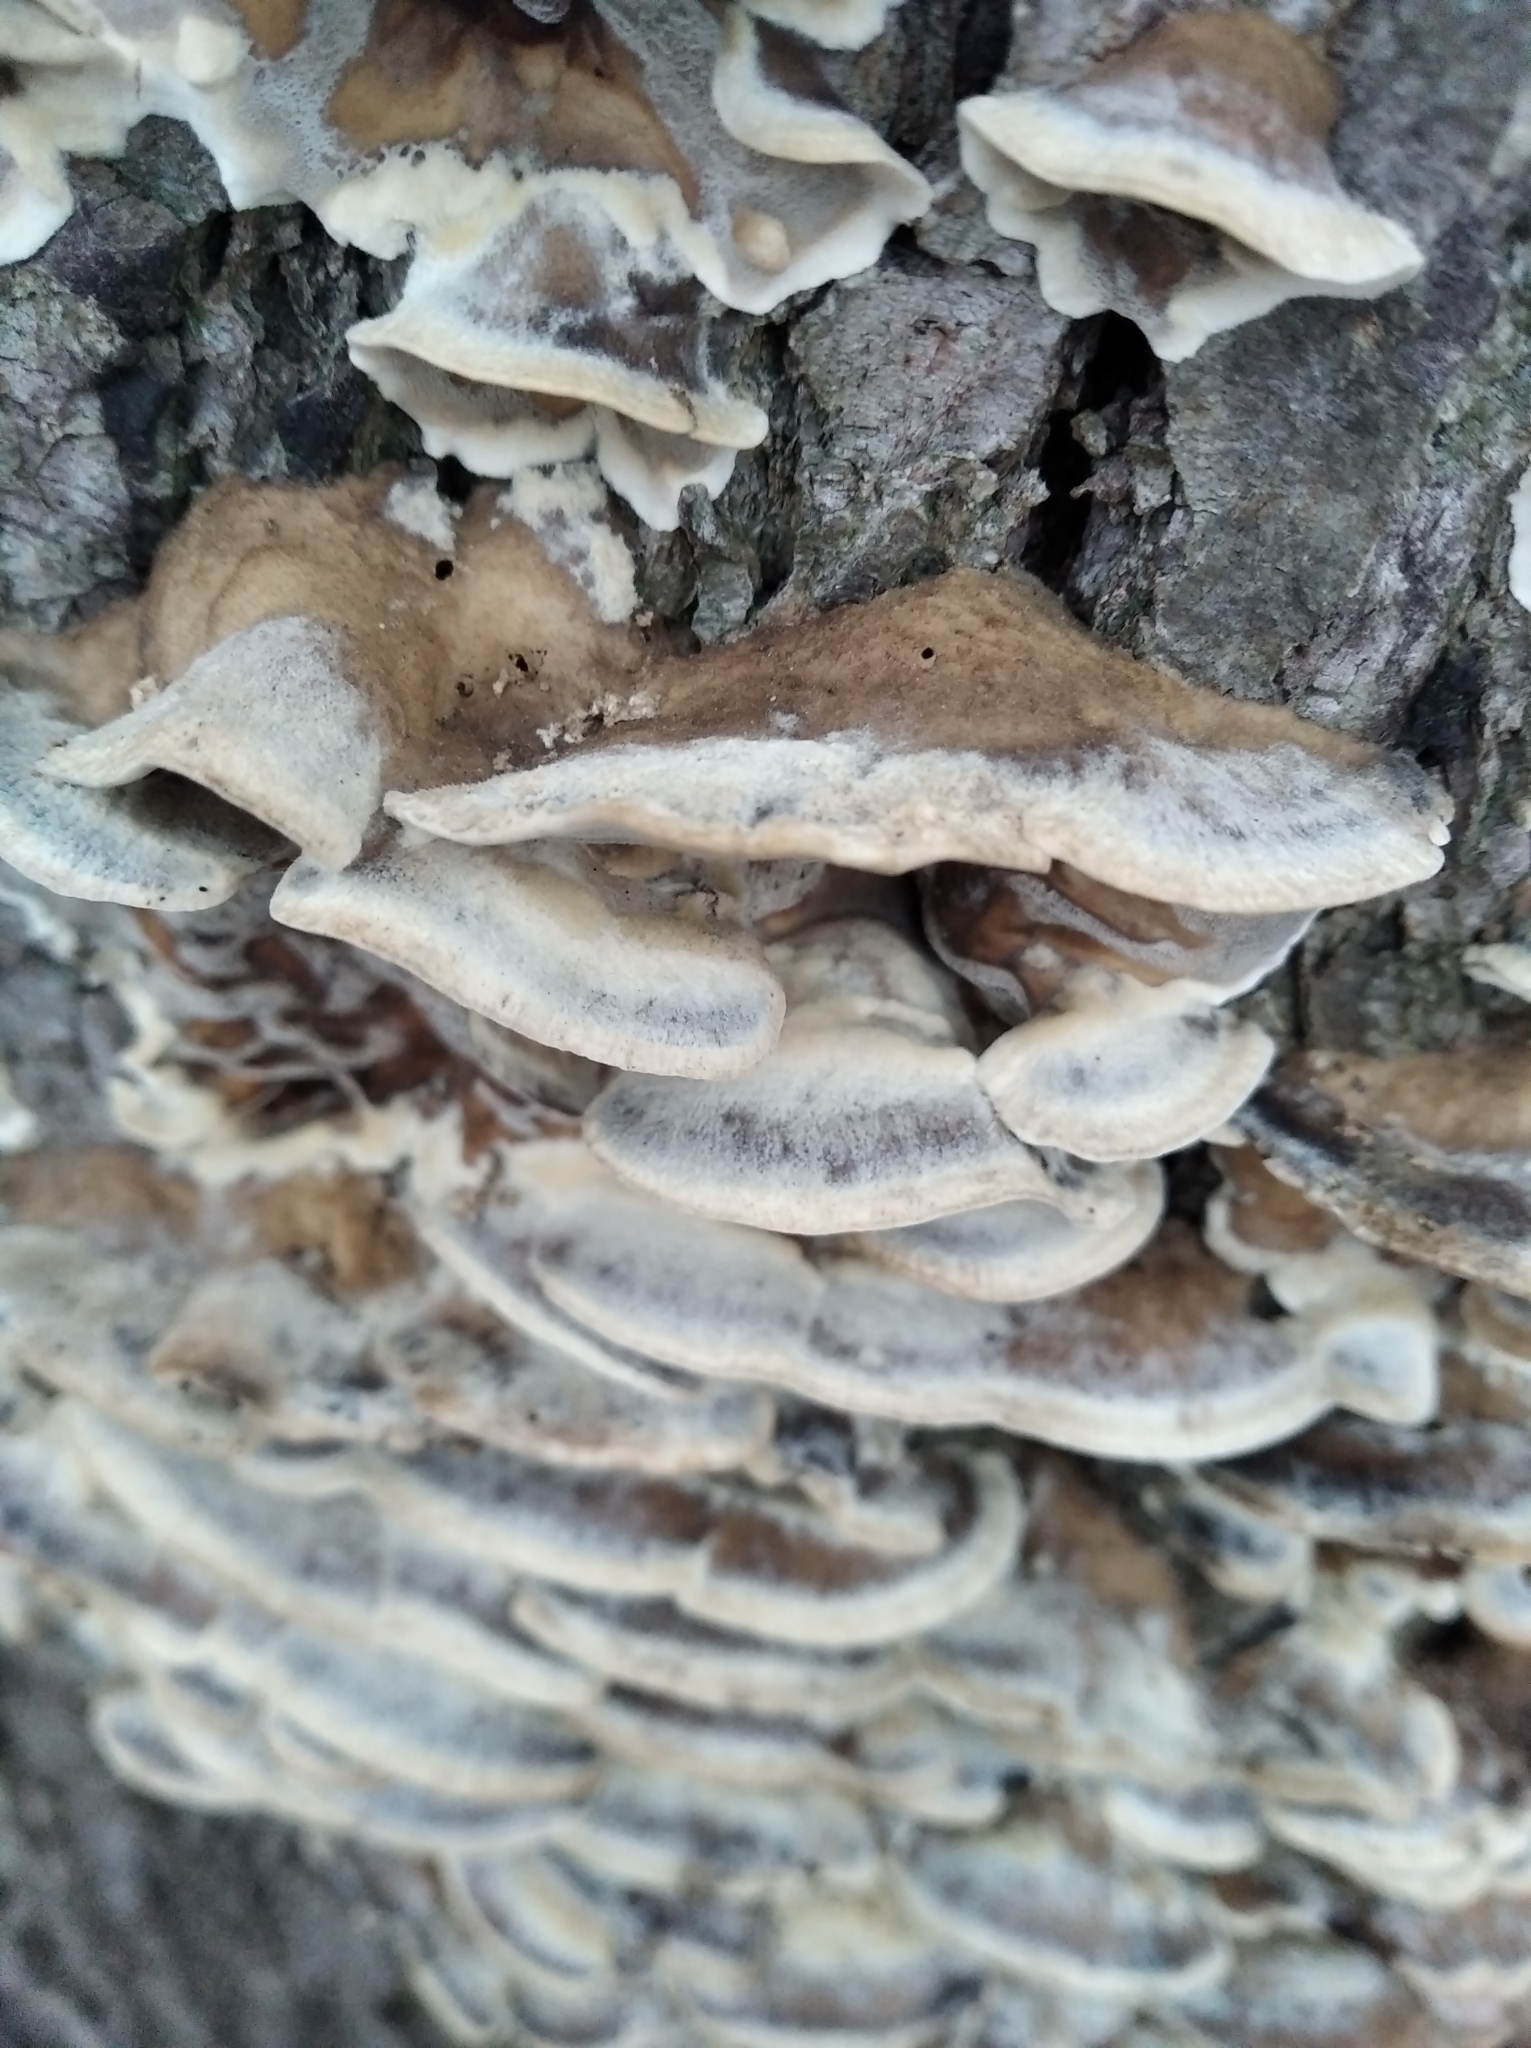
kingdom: Fungi
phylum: Basidiomycota
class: Agaricomycetes
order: Polyporales
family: Phanerochaetaceae
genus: Bjerkandera
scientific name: Bjerkandera adusta
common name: Smoky bracket
